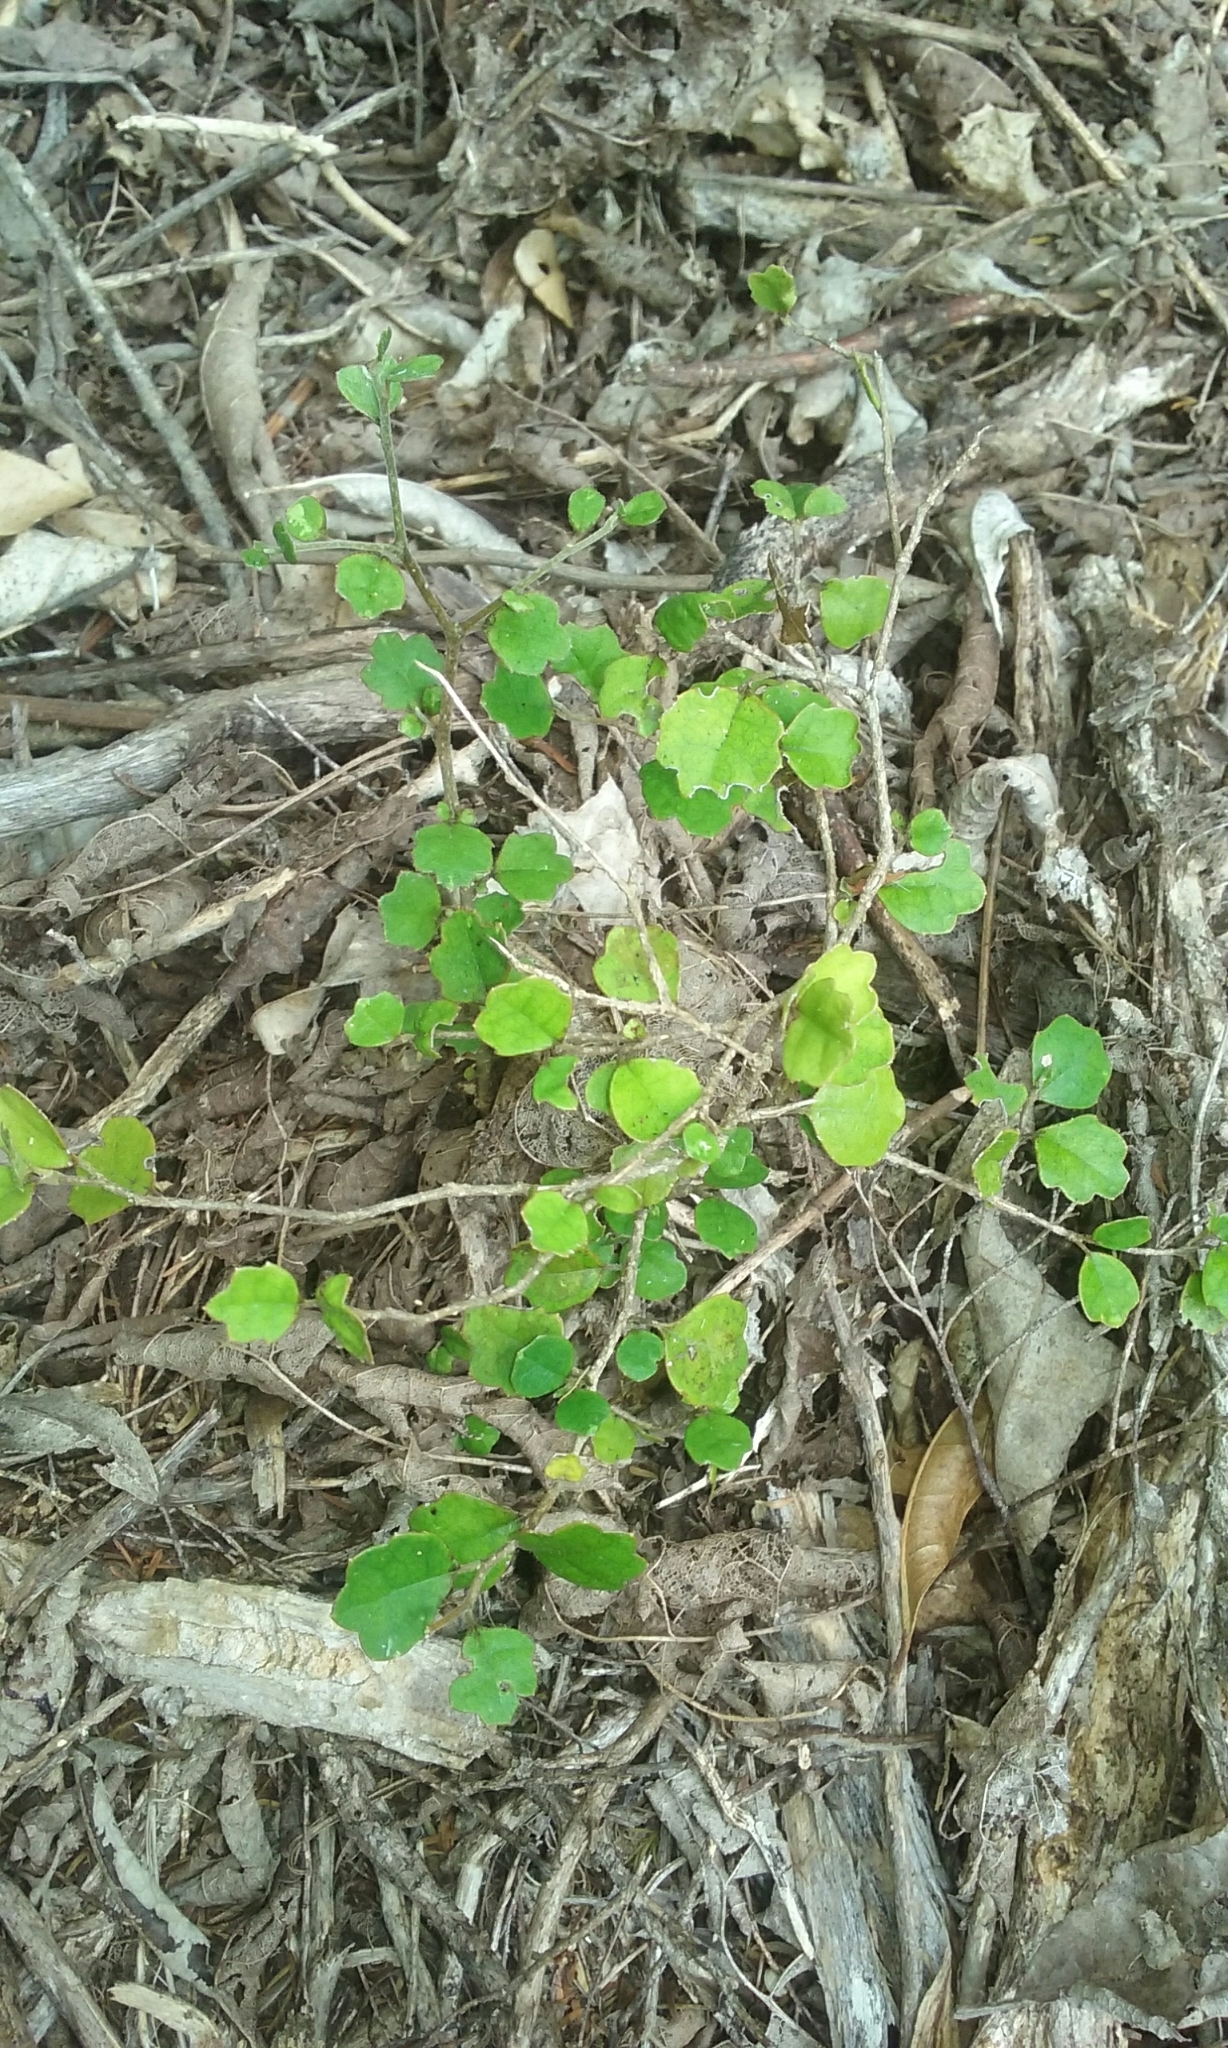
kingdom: Plantae
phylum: Tracheophyta
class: Magnoliopsida
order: Apiales
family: Pennantiaceae
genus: Pennantia
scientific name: Pennantia corymbosa
